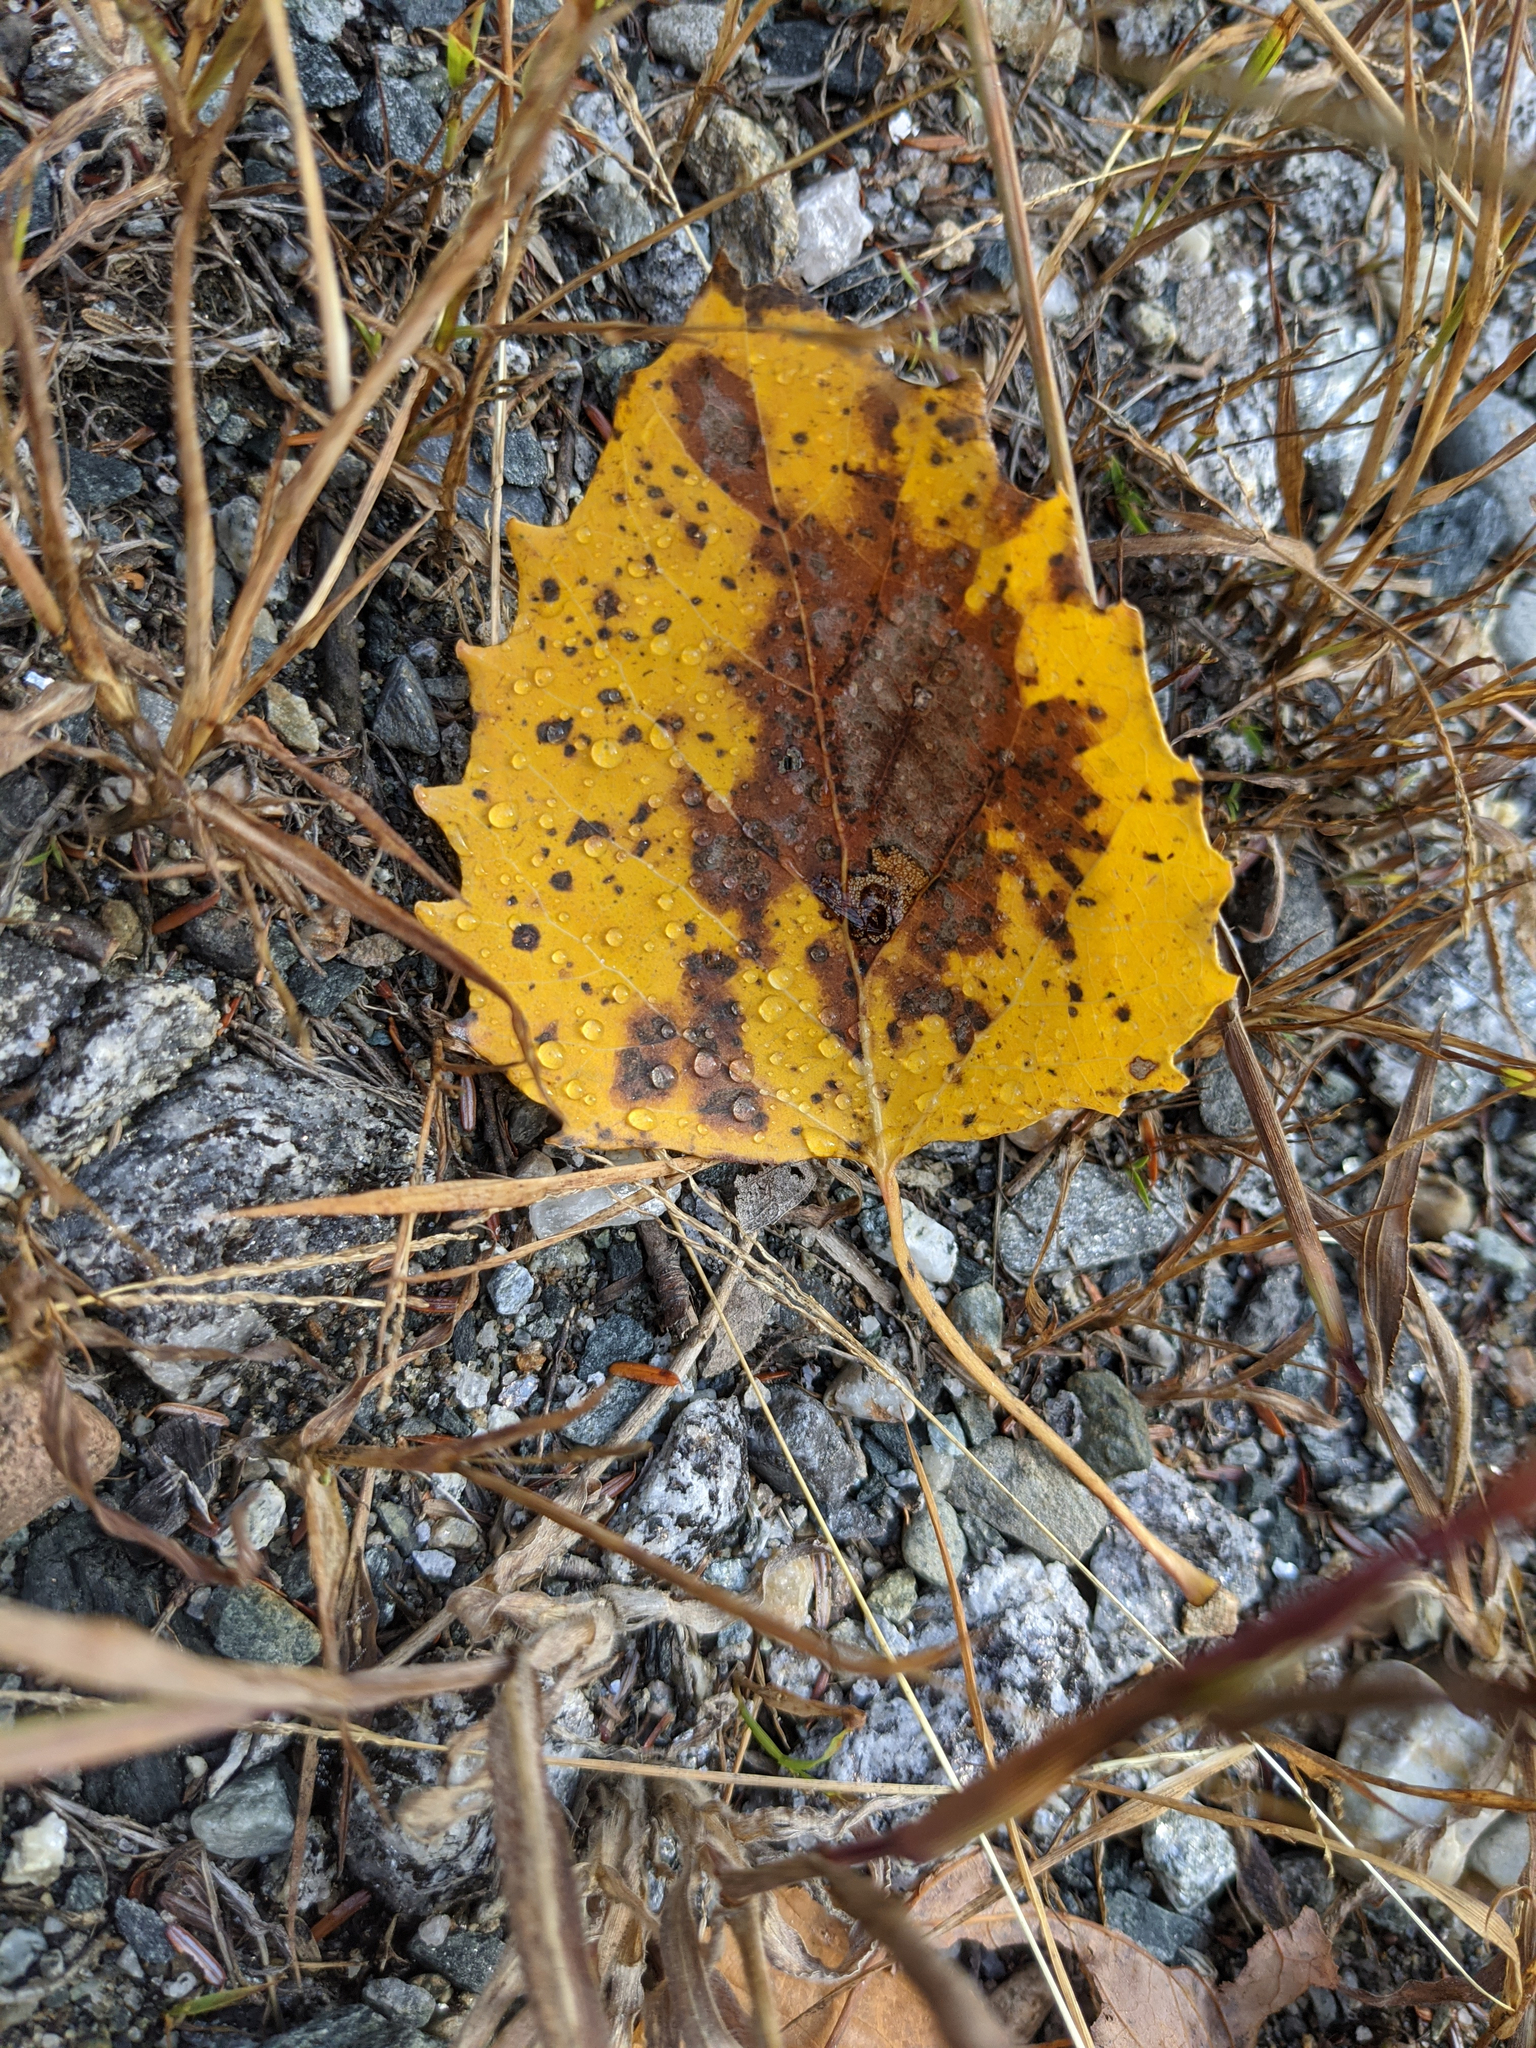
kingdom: Plantae
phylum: Tracheophyta
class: Magnoliopsida
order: Malpighiales
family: Salicaceae
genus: Populus
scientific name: Populus grandidentata
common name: Bigtooth aspen
